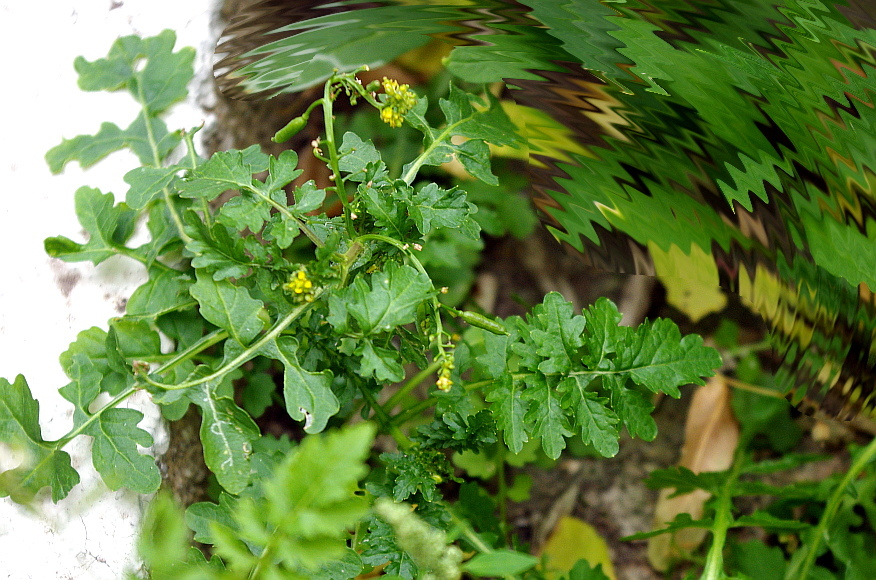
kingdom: Plantae
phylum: Tracheophyta
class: Magnoliopsida
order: Brassicales
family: Brassicaceae
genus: Rorippa
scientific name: Rorippa palustris
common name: Marsh yellow-cress
